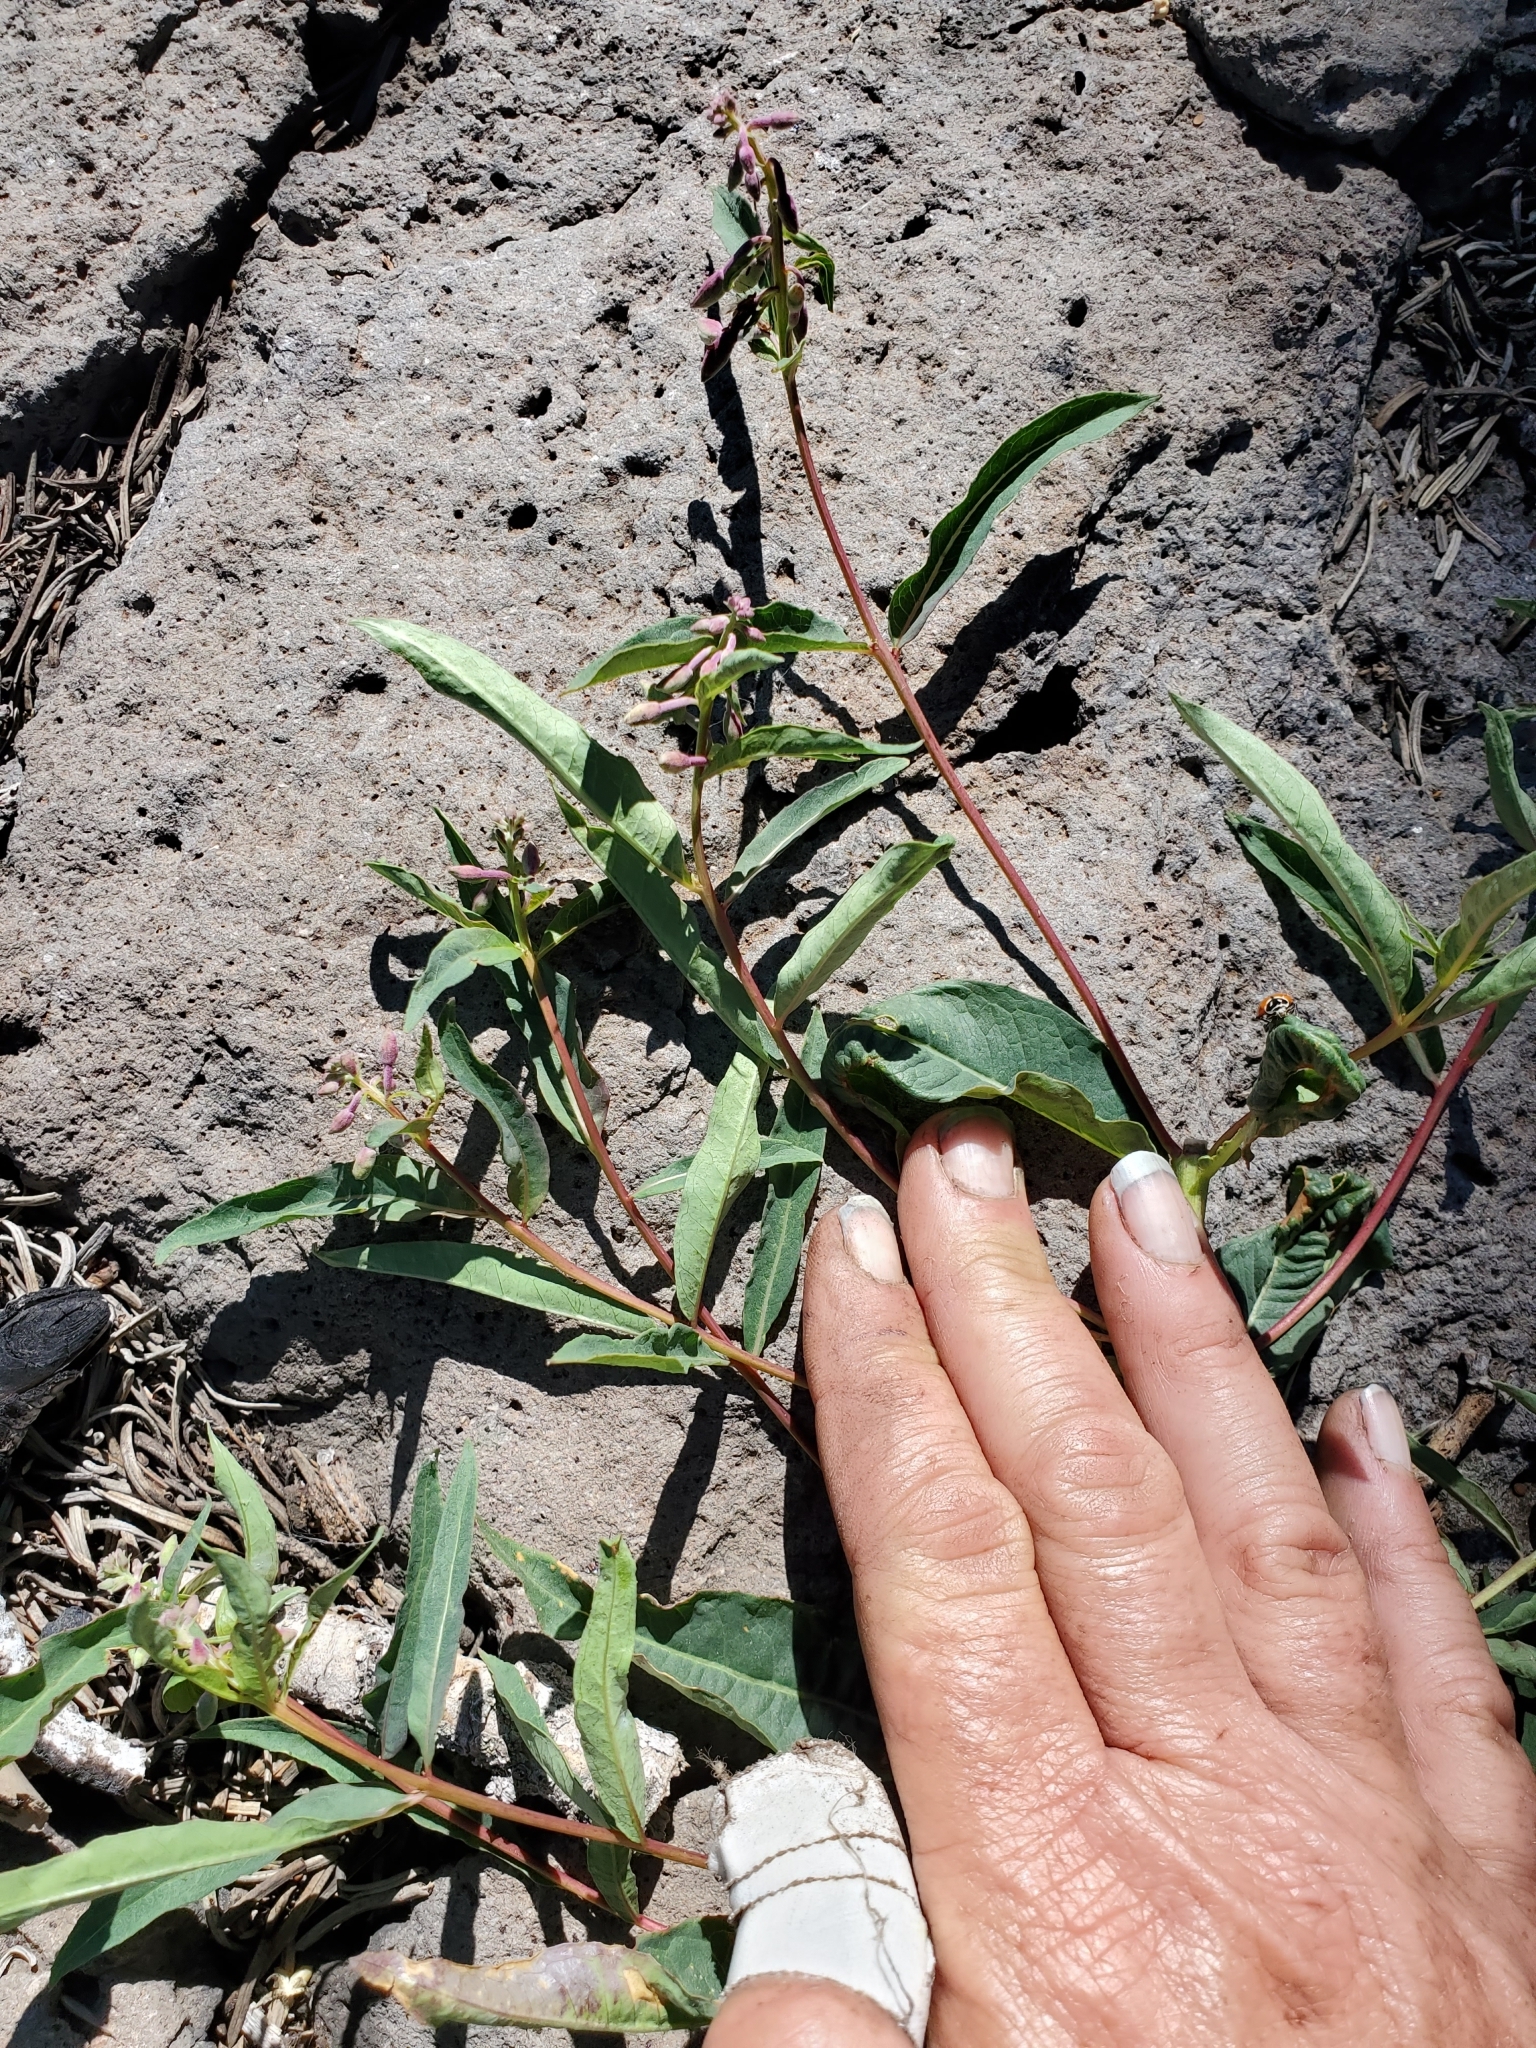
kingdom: Plantae
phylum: Tracheophyta
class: Magnoliopsida
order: Myrtales
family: Onagraceae
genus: Chamaenerion
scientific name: Chamaenerion angustifolium
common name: Fireweed
